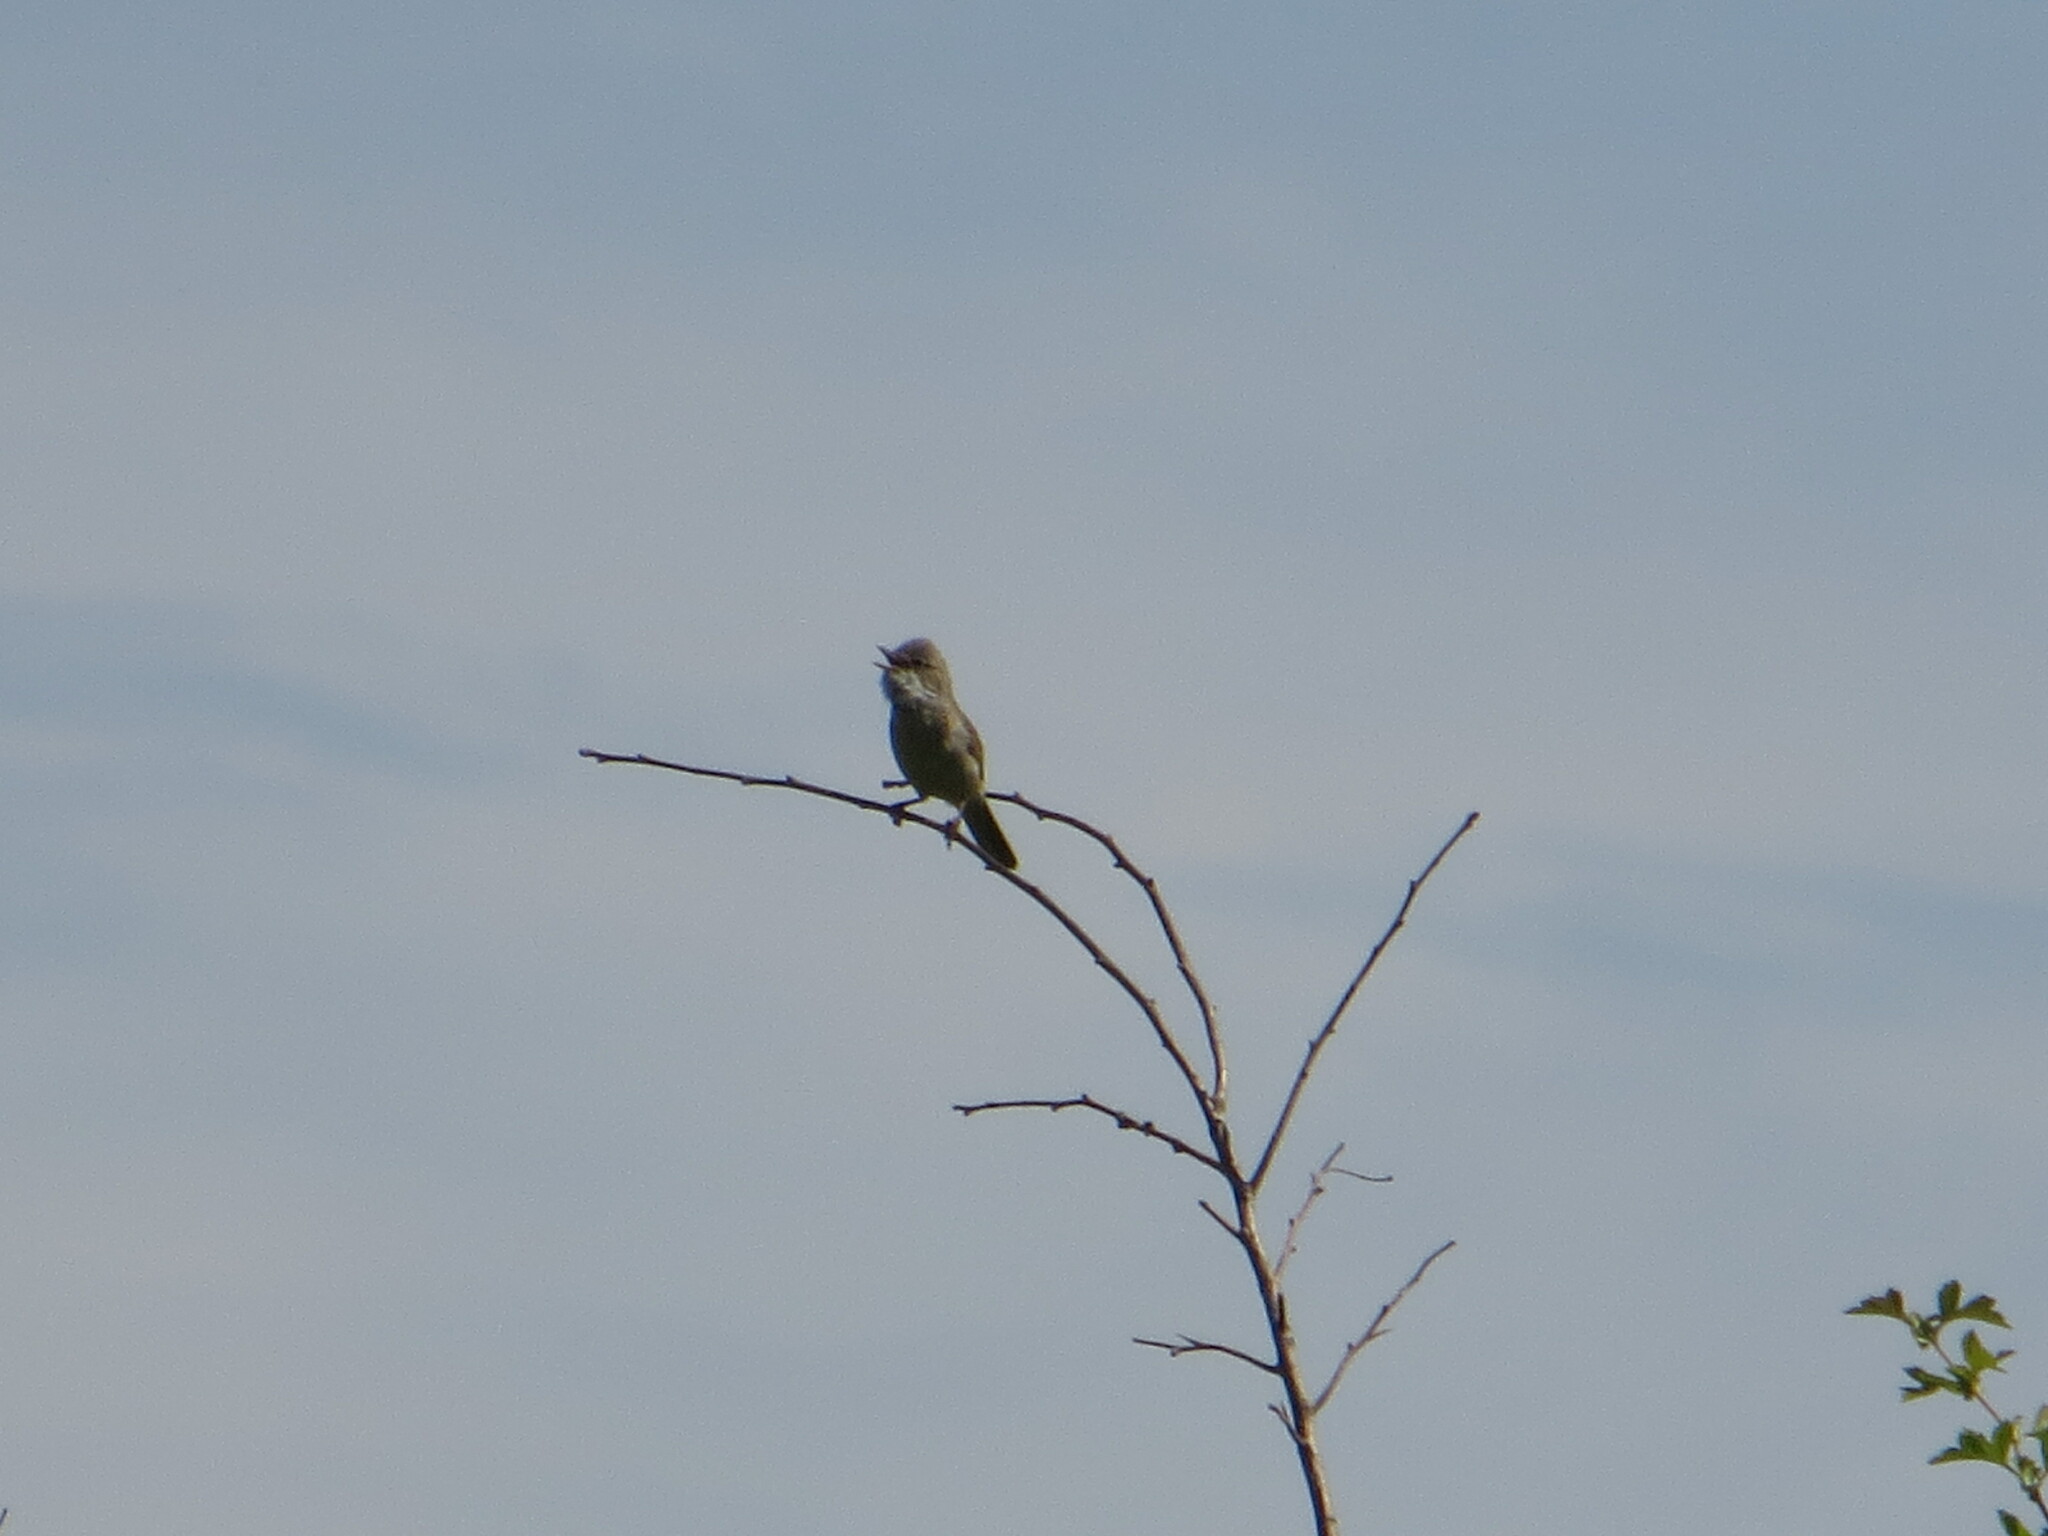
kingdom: Animalia
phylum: Chordata
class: Aves
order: Passeriformes
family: Sylviidae
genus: Sylvia
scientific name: Sylvia nisoria
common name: Barred warbler
